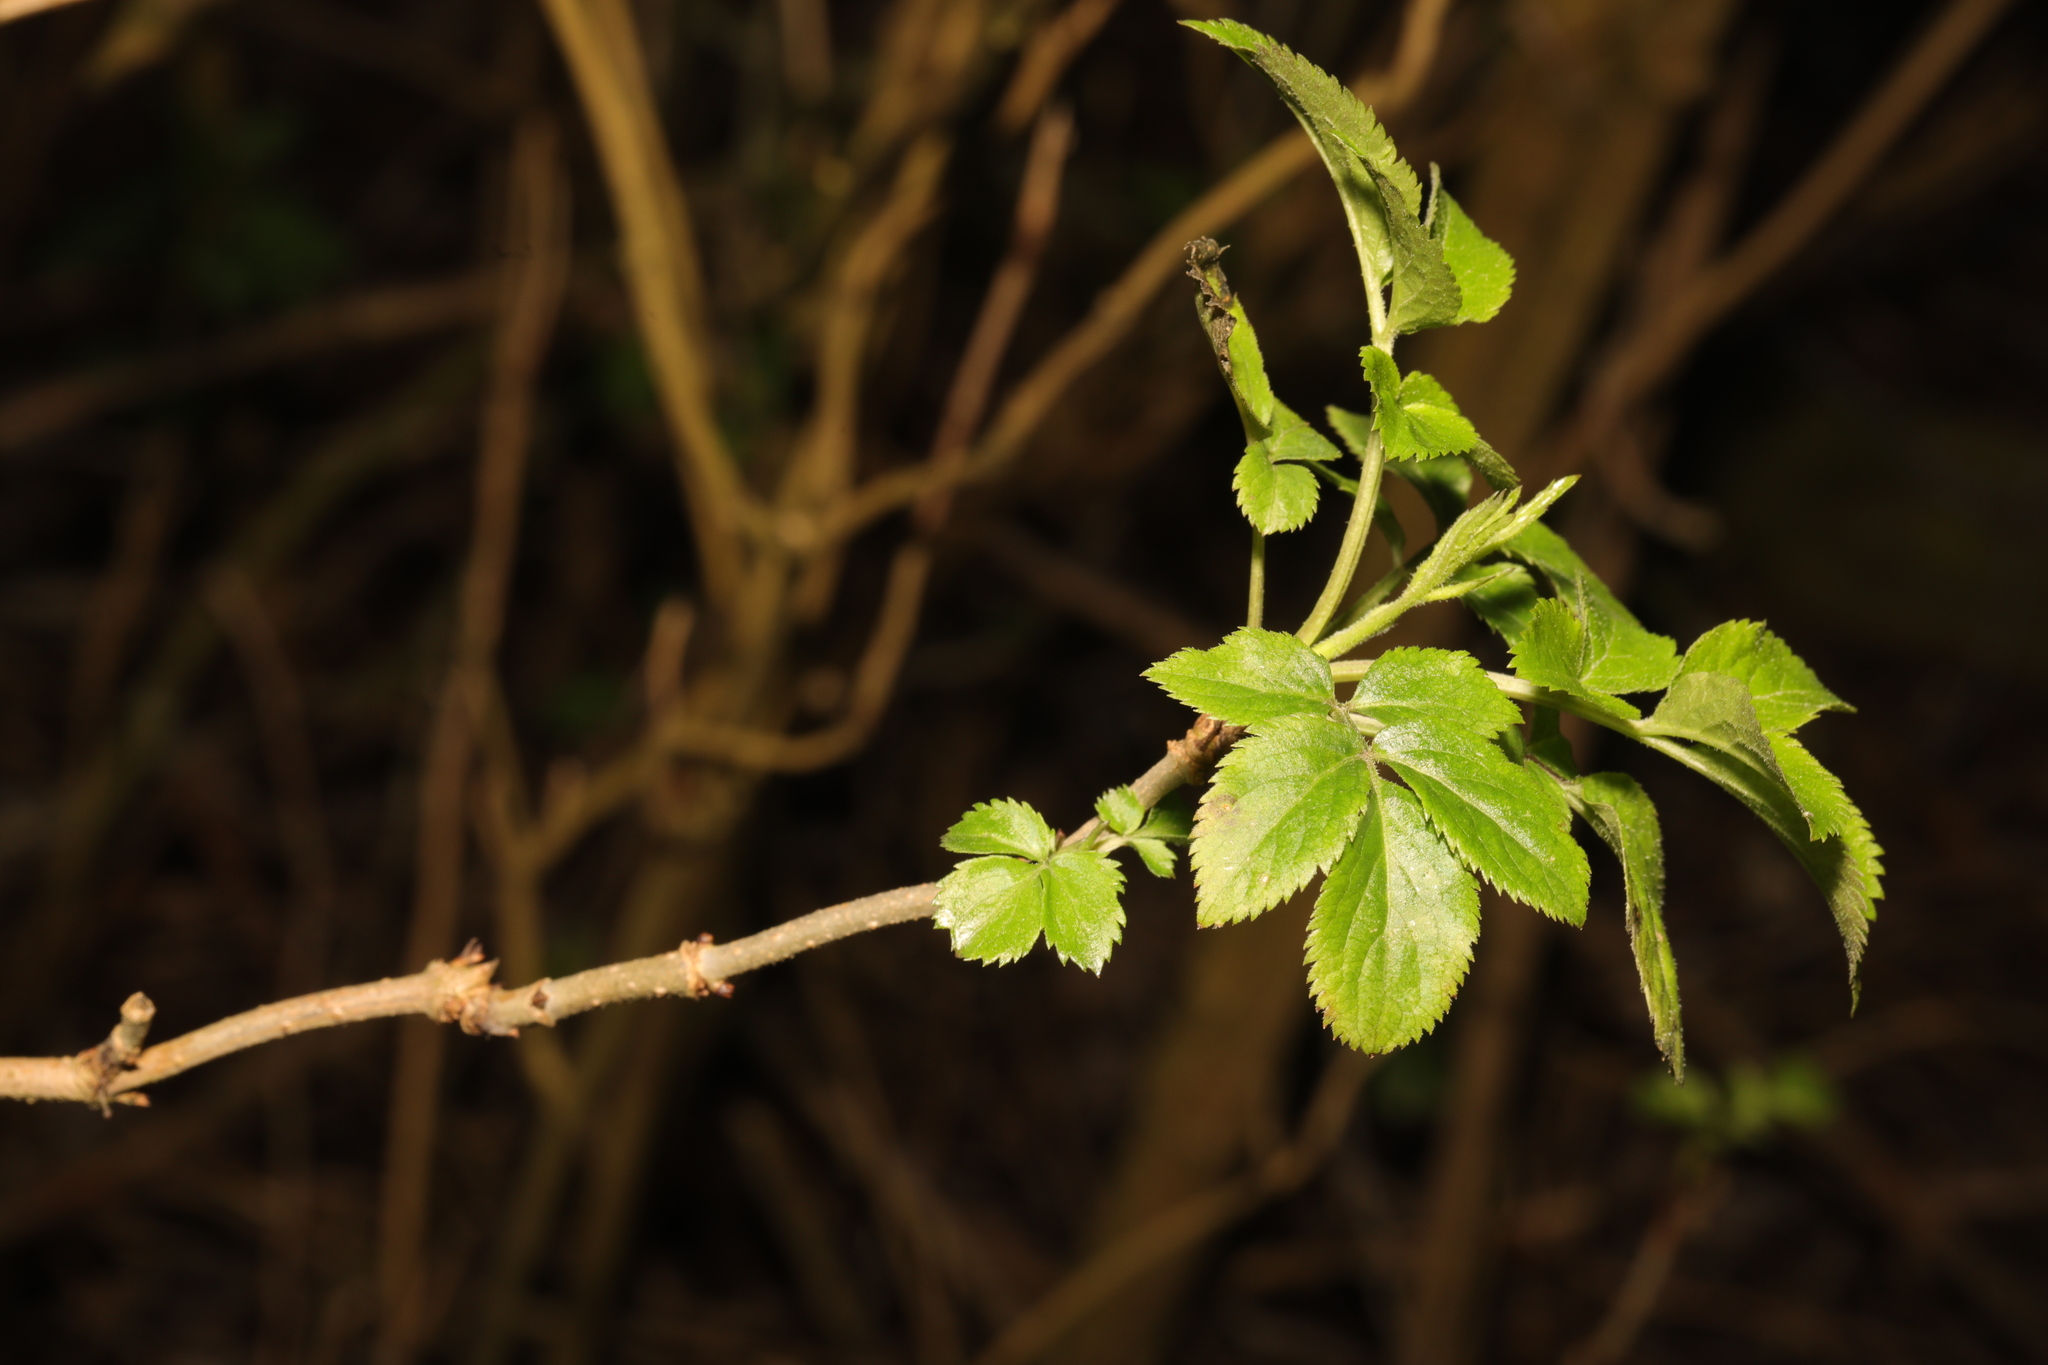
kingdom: Plantae
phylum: Tracheophyta
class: Magnoliopsida
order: Dipsacales
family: Viburnaceae
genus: Sambucus
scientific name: Sambucus nigra
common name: Elder
